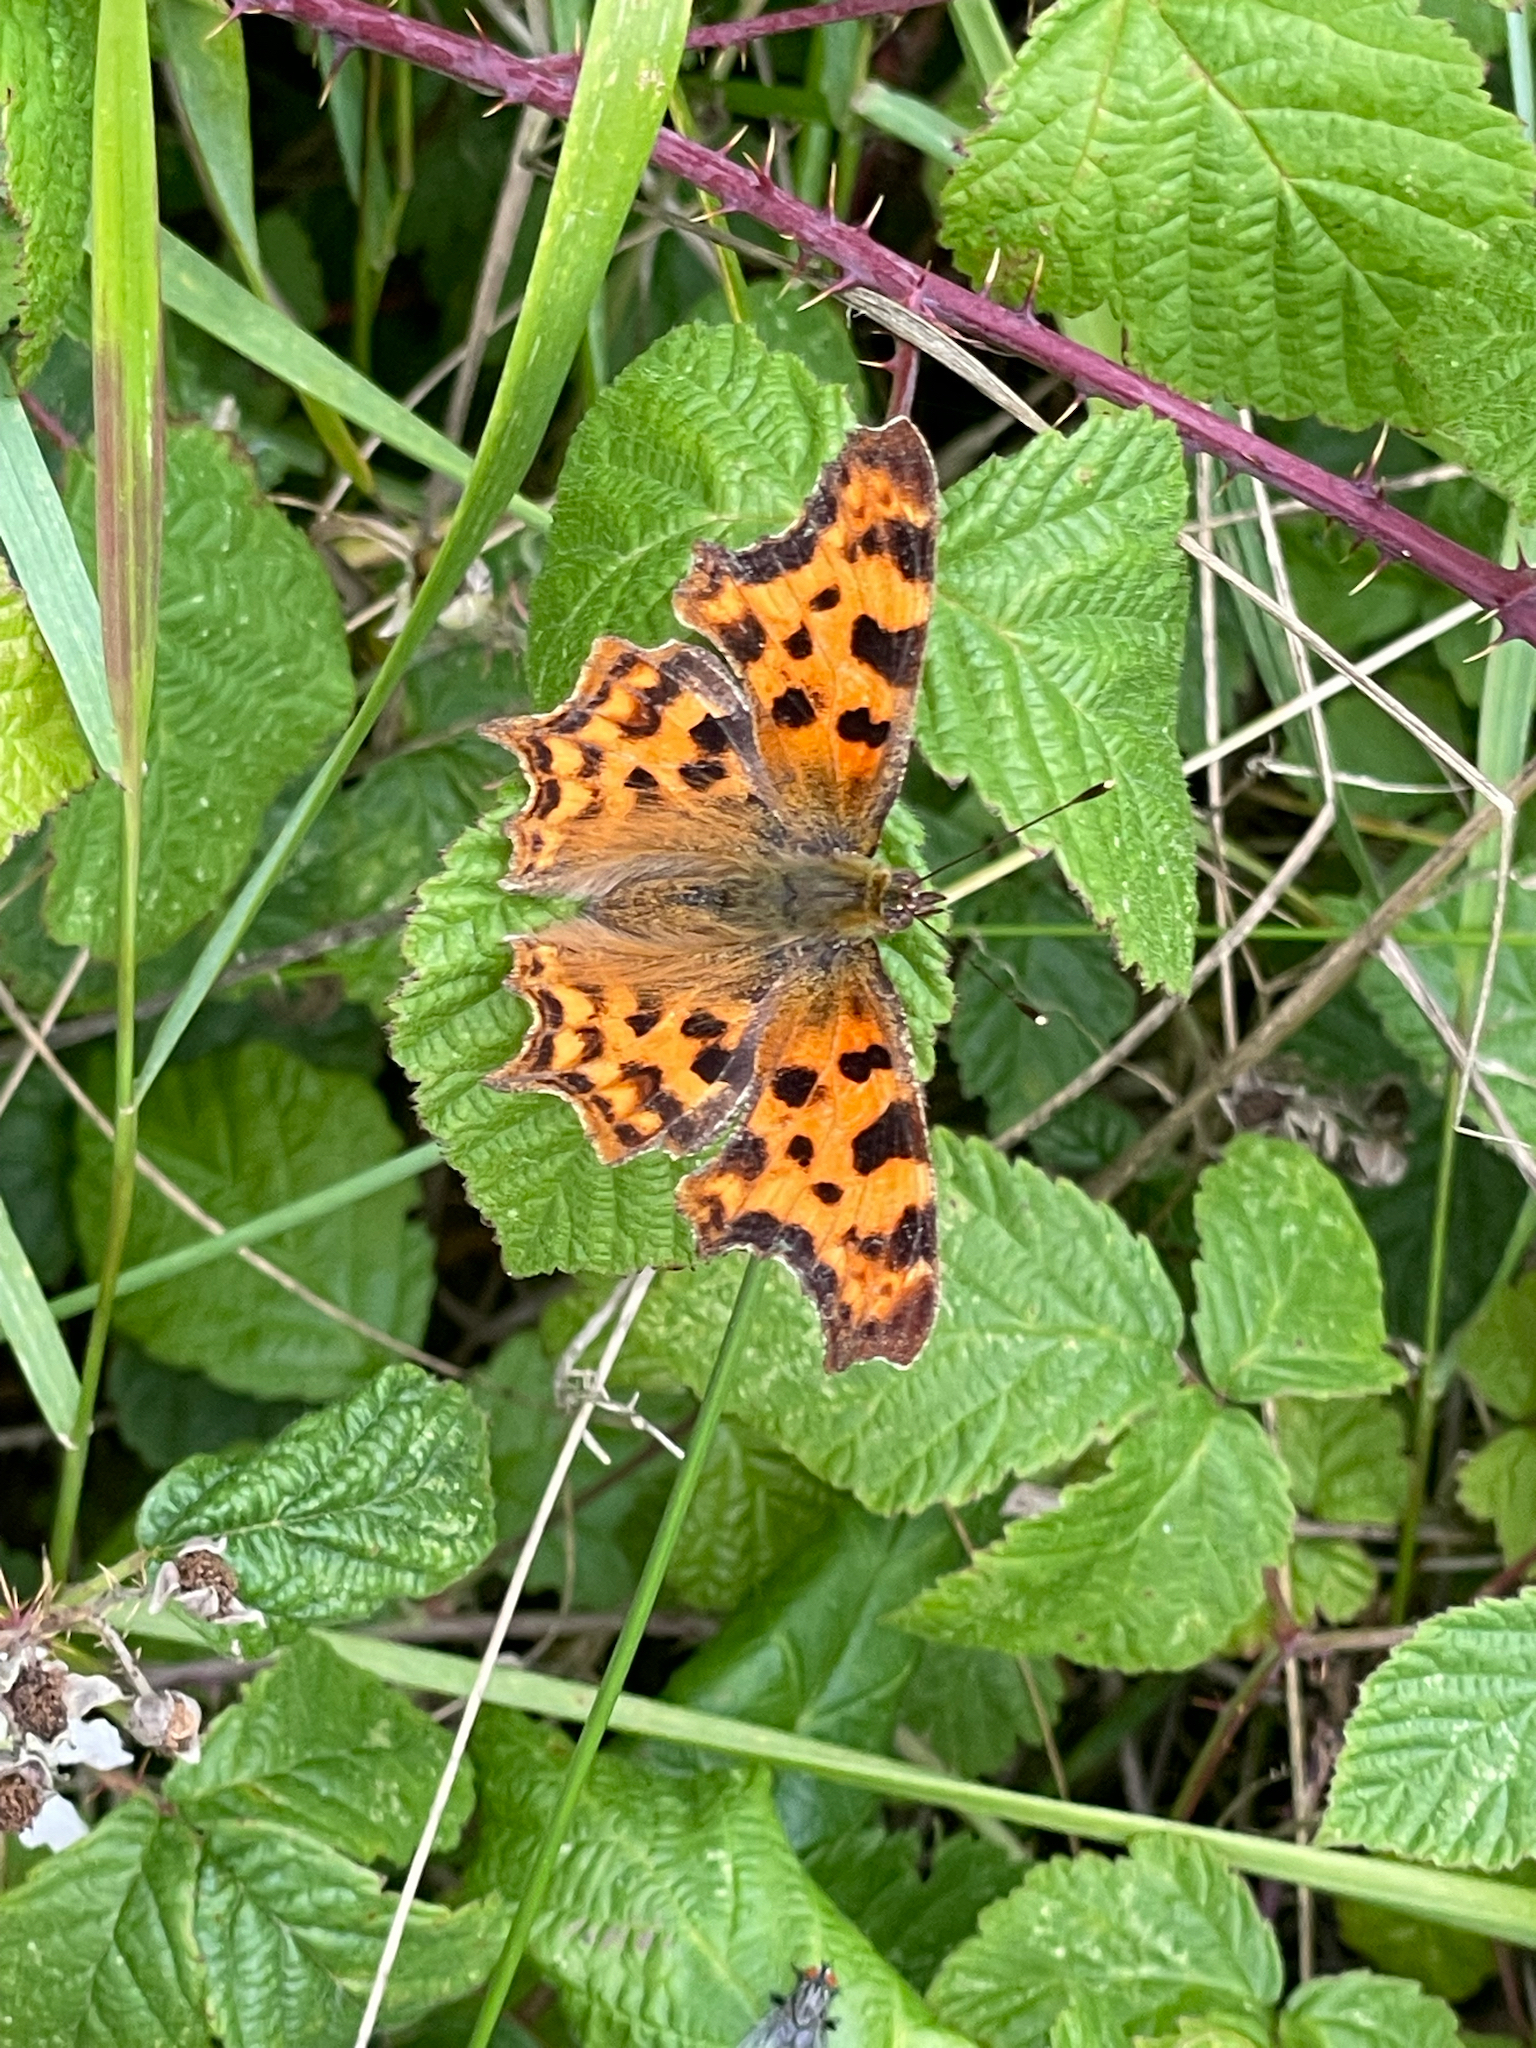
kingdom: Animalia
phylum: Arthropoda
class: Insecta
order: Lepidoptera
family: Nymphalidae
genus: Polygonia
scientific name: Polygonia c-album
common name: Comma
